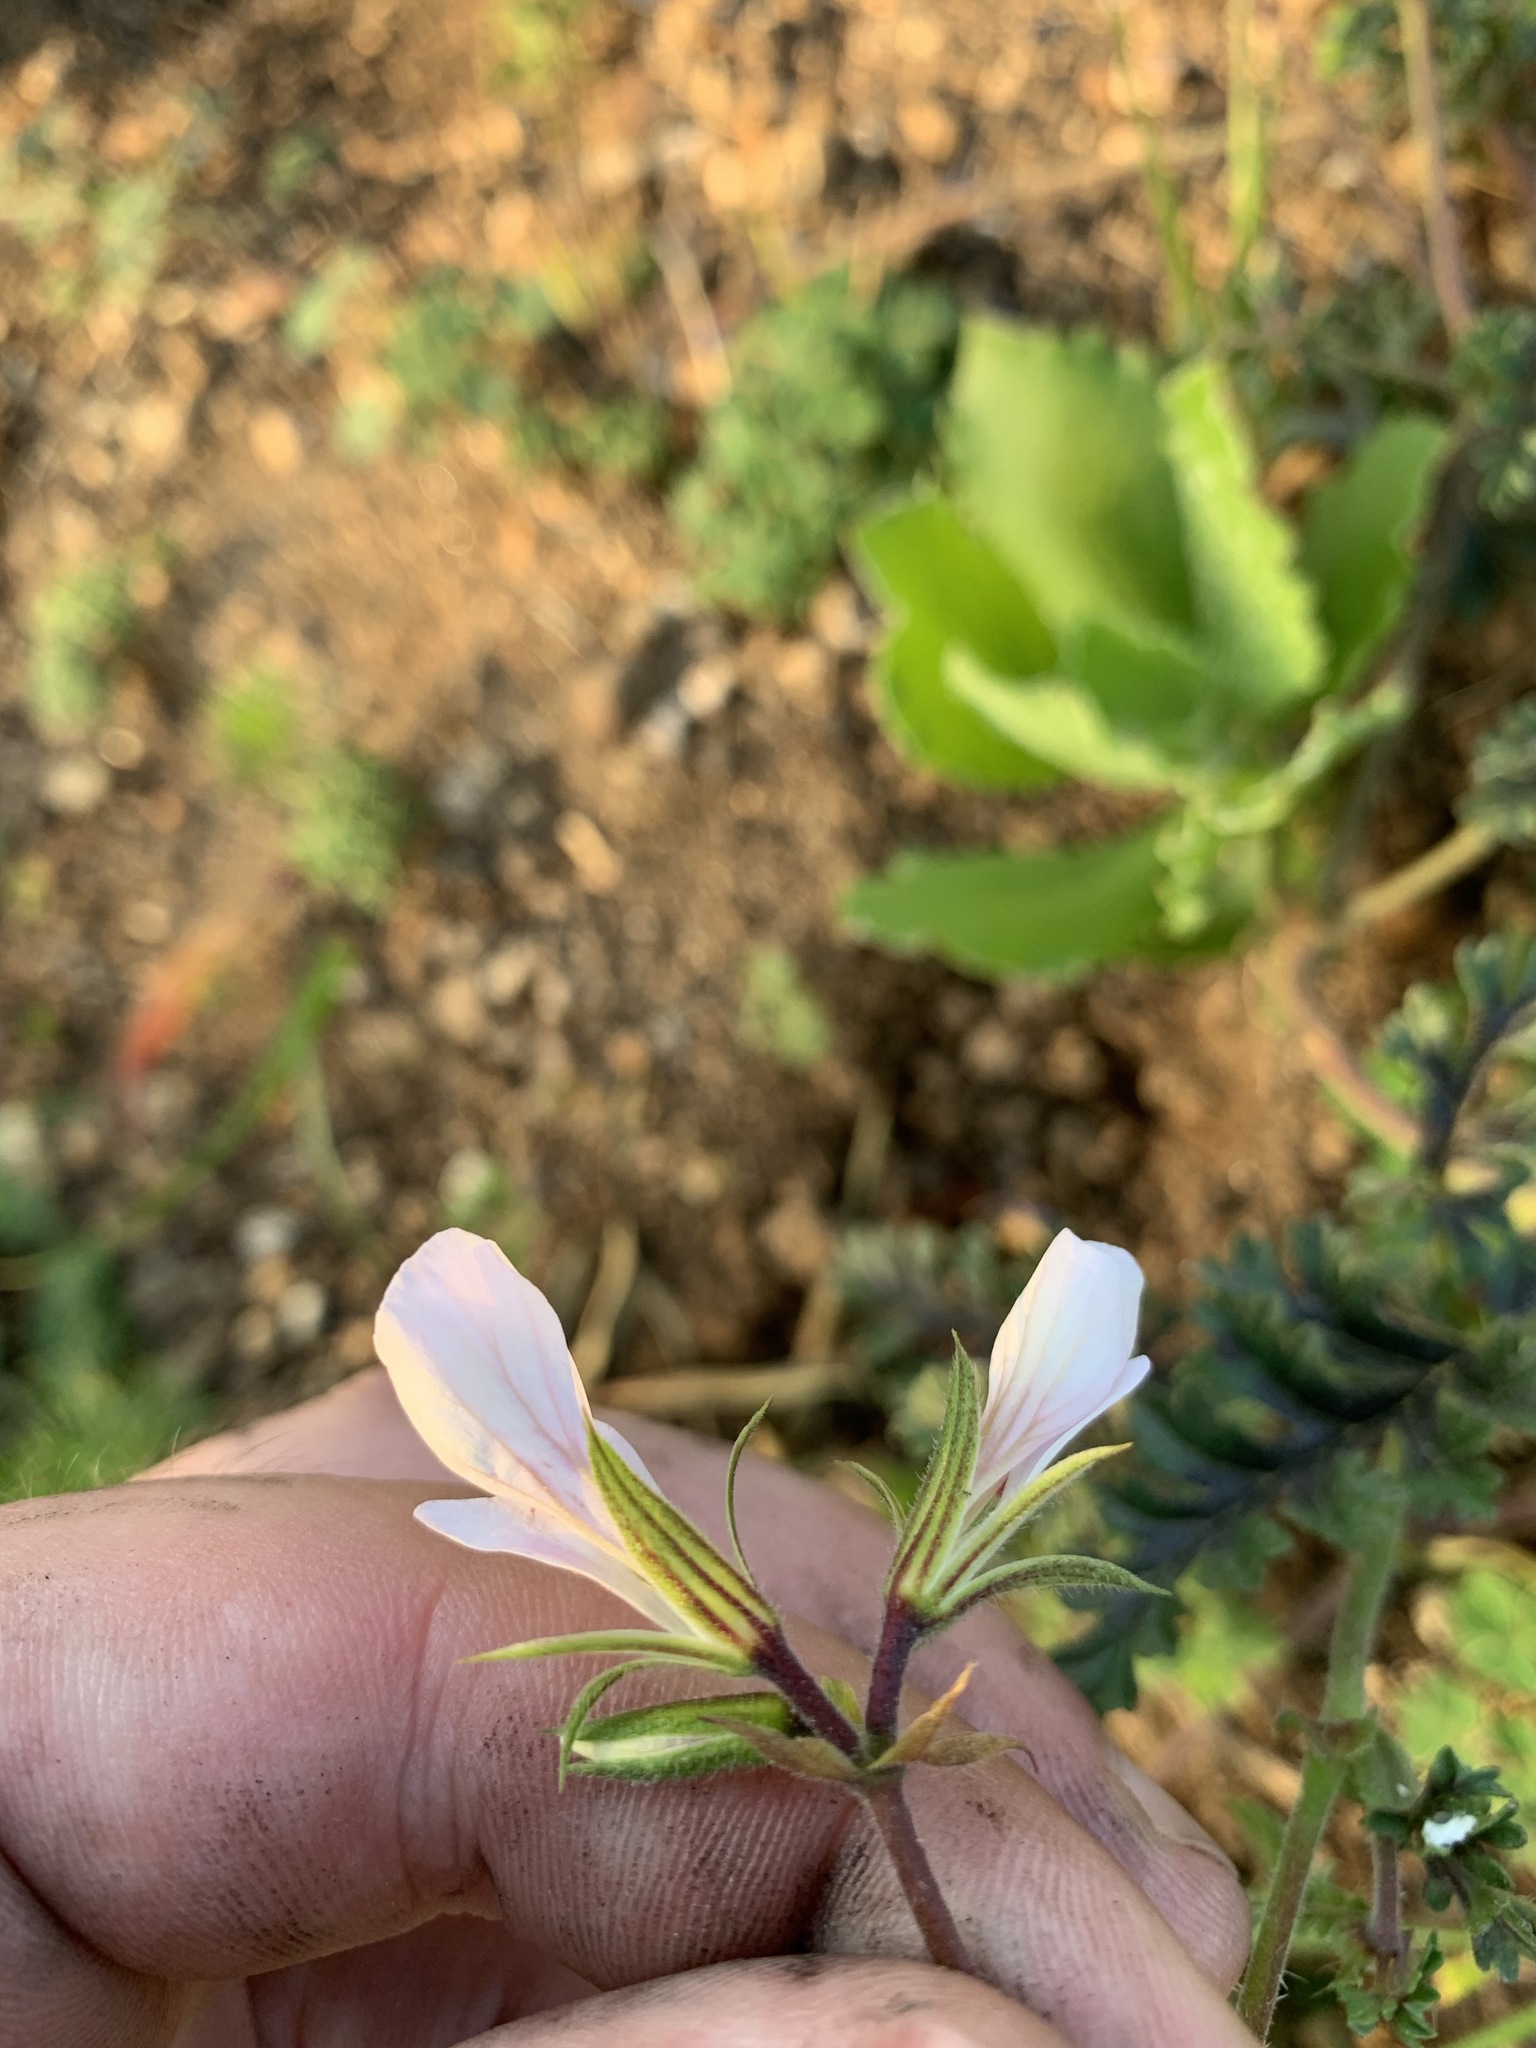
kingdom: Plantae
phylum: Tracheophyta
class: Magnoliopsida
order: Geraniales
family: Geraniaceae
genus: Pelargonium
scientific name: Pelargonium myrrhifolium
